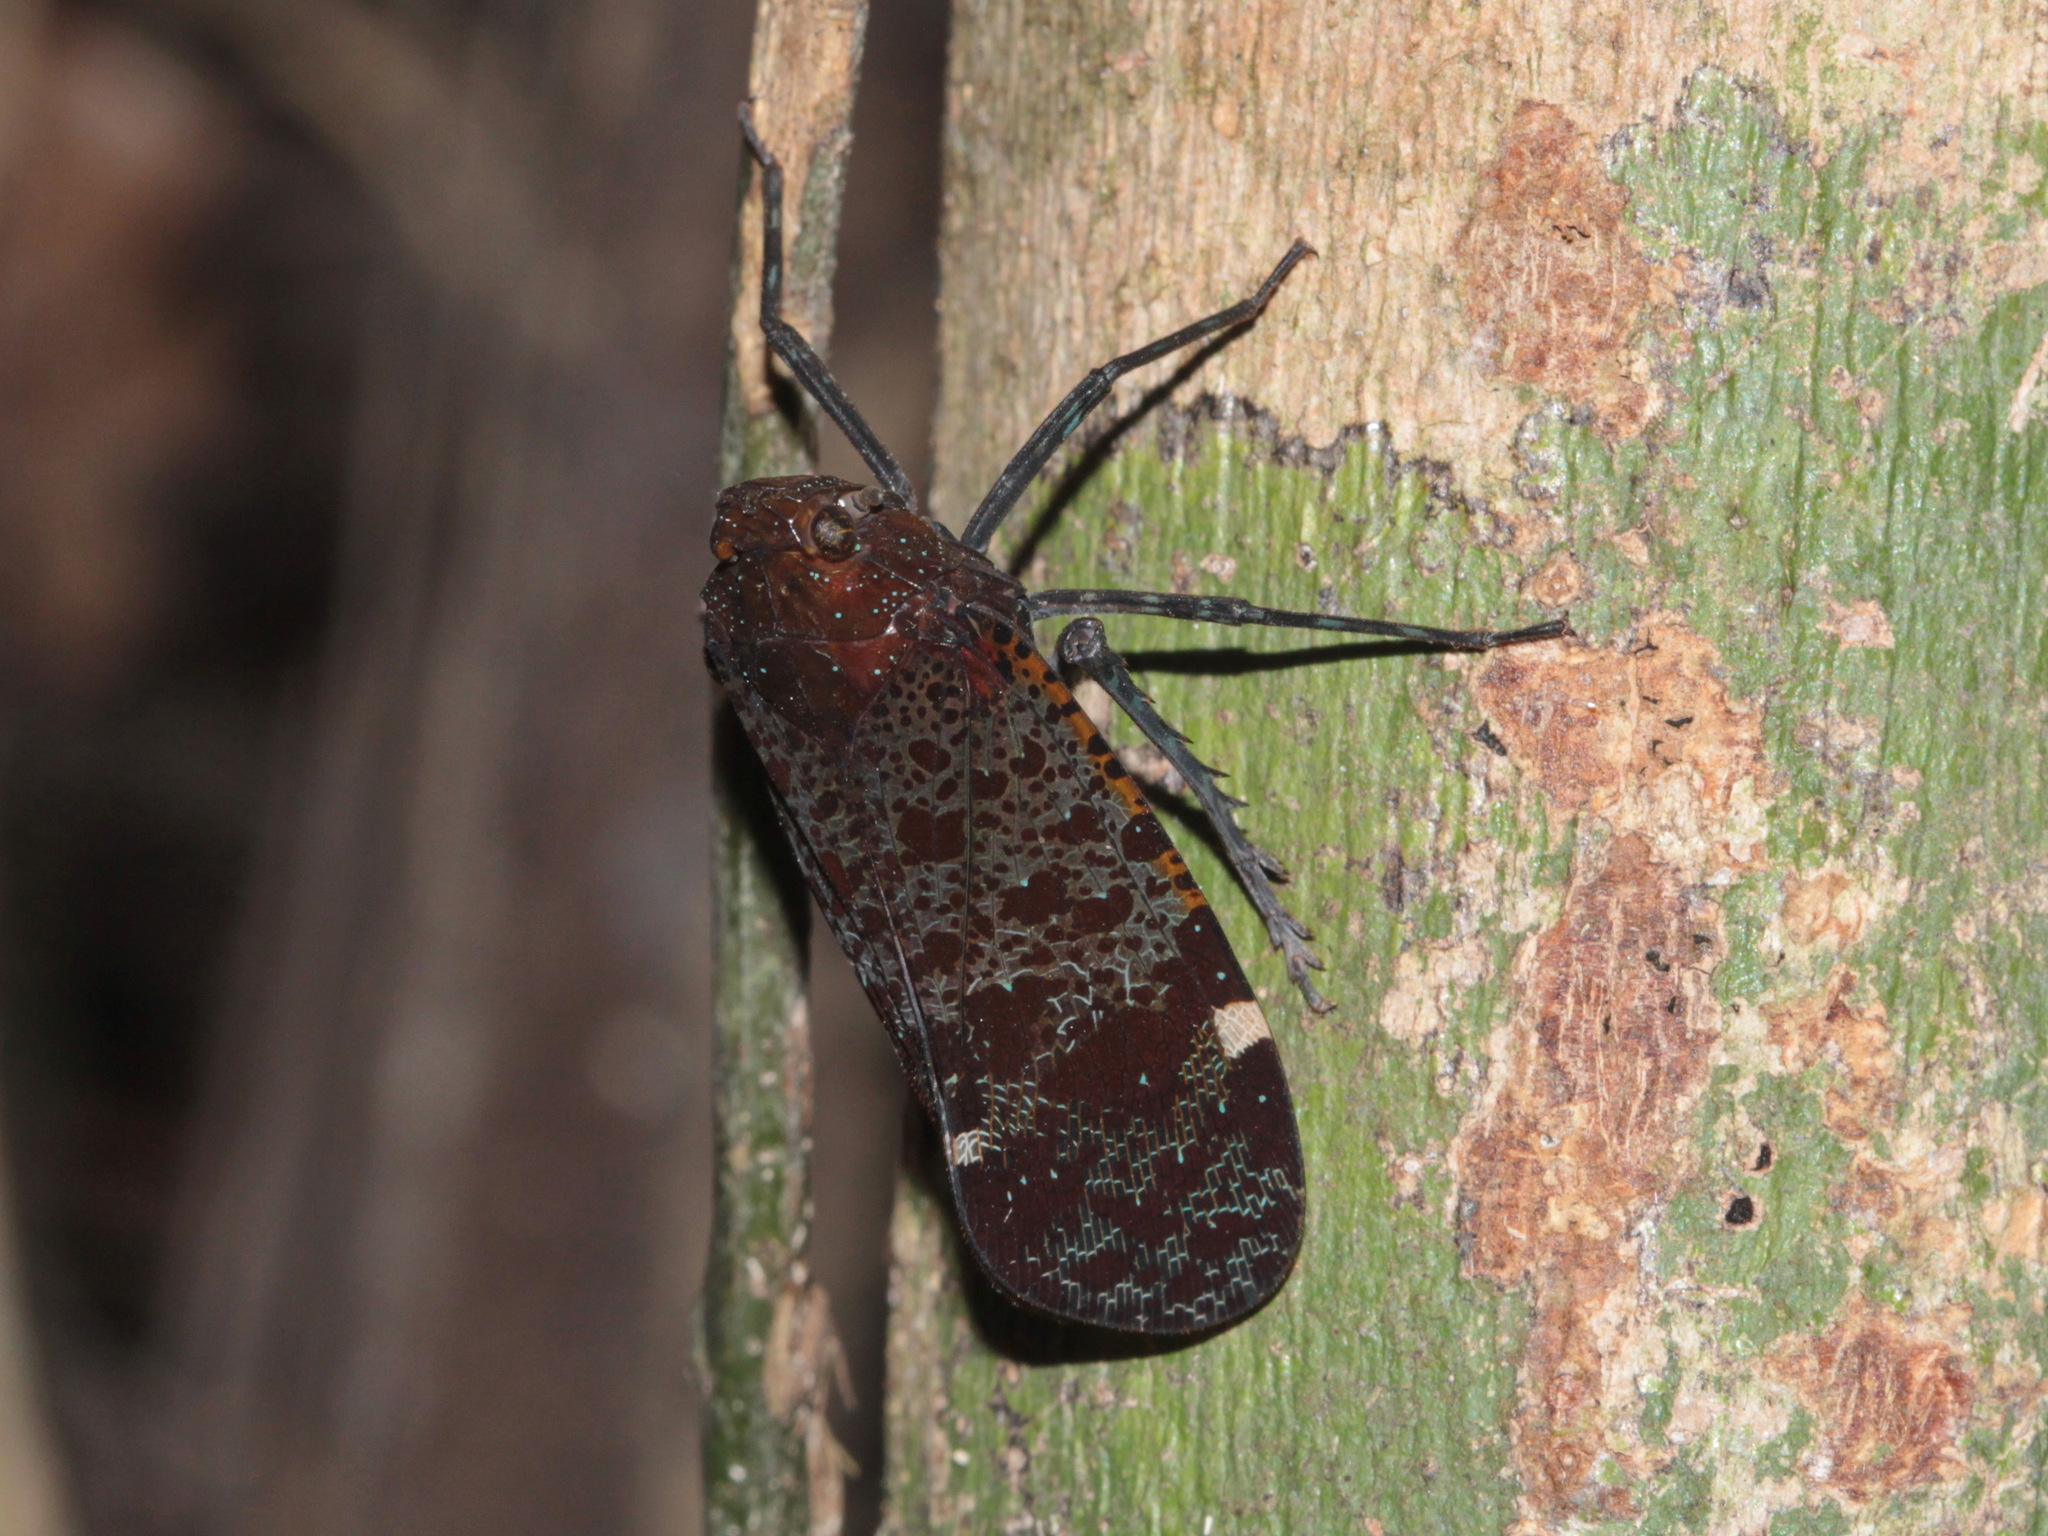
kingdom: Animalia
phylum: Arthropoda
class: Insecta
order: Hemiptera
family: Fulgoridae
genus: Penthicodes
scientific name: Penthicodes variegata
